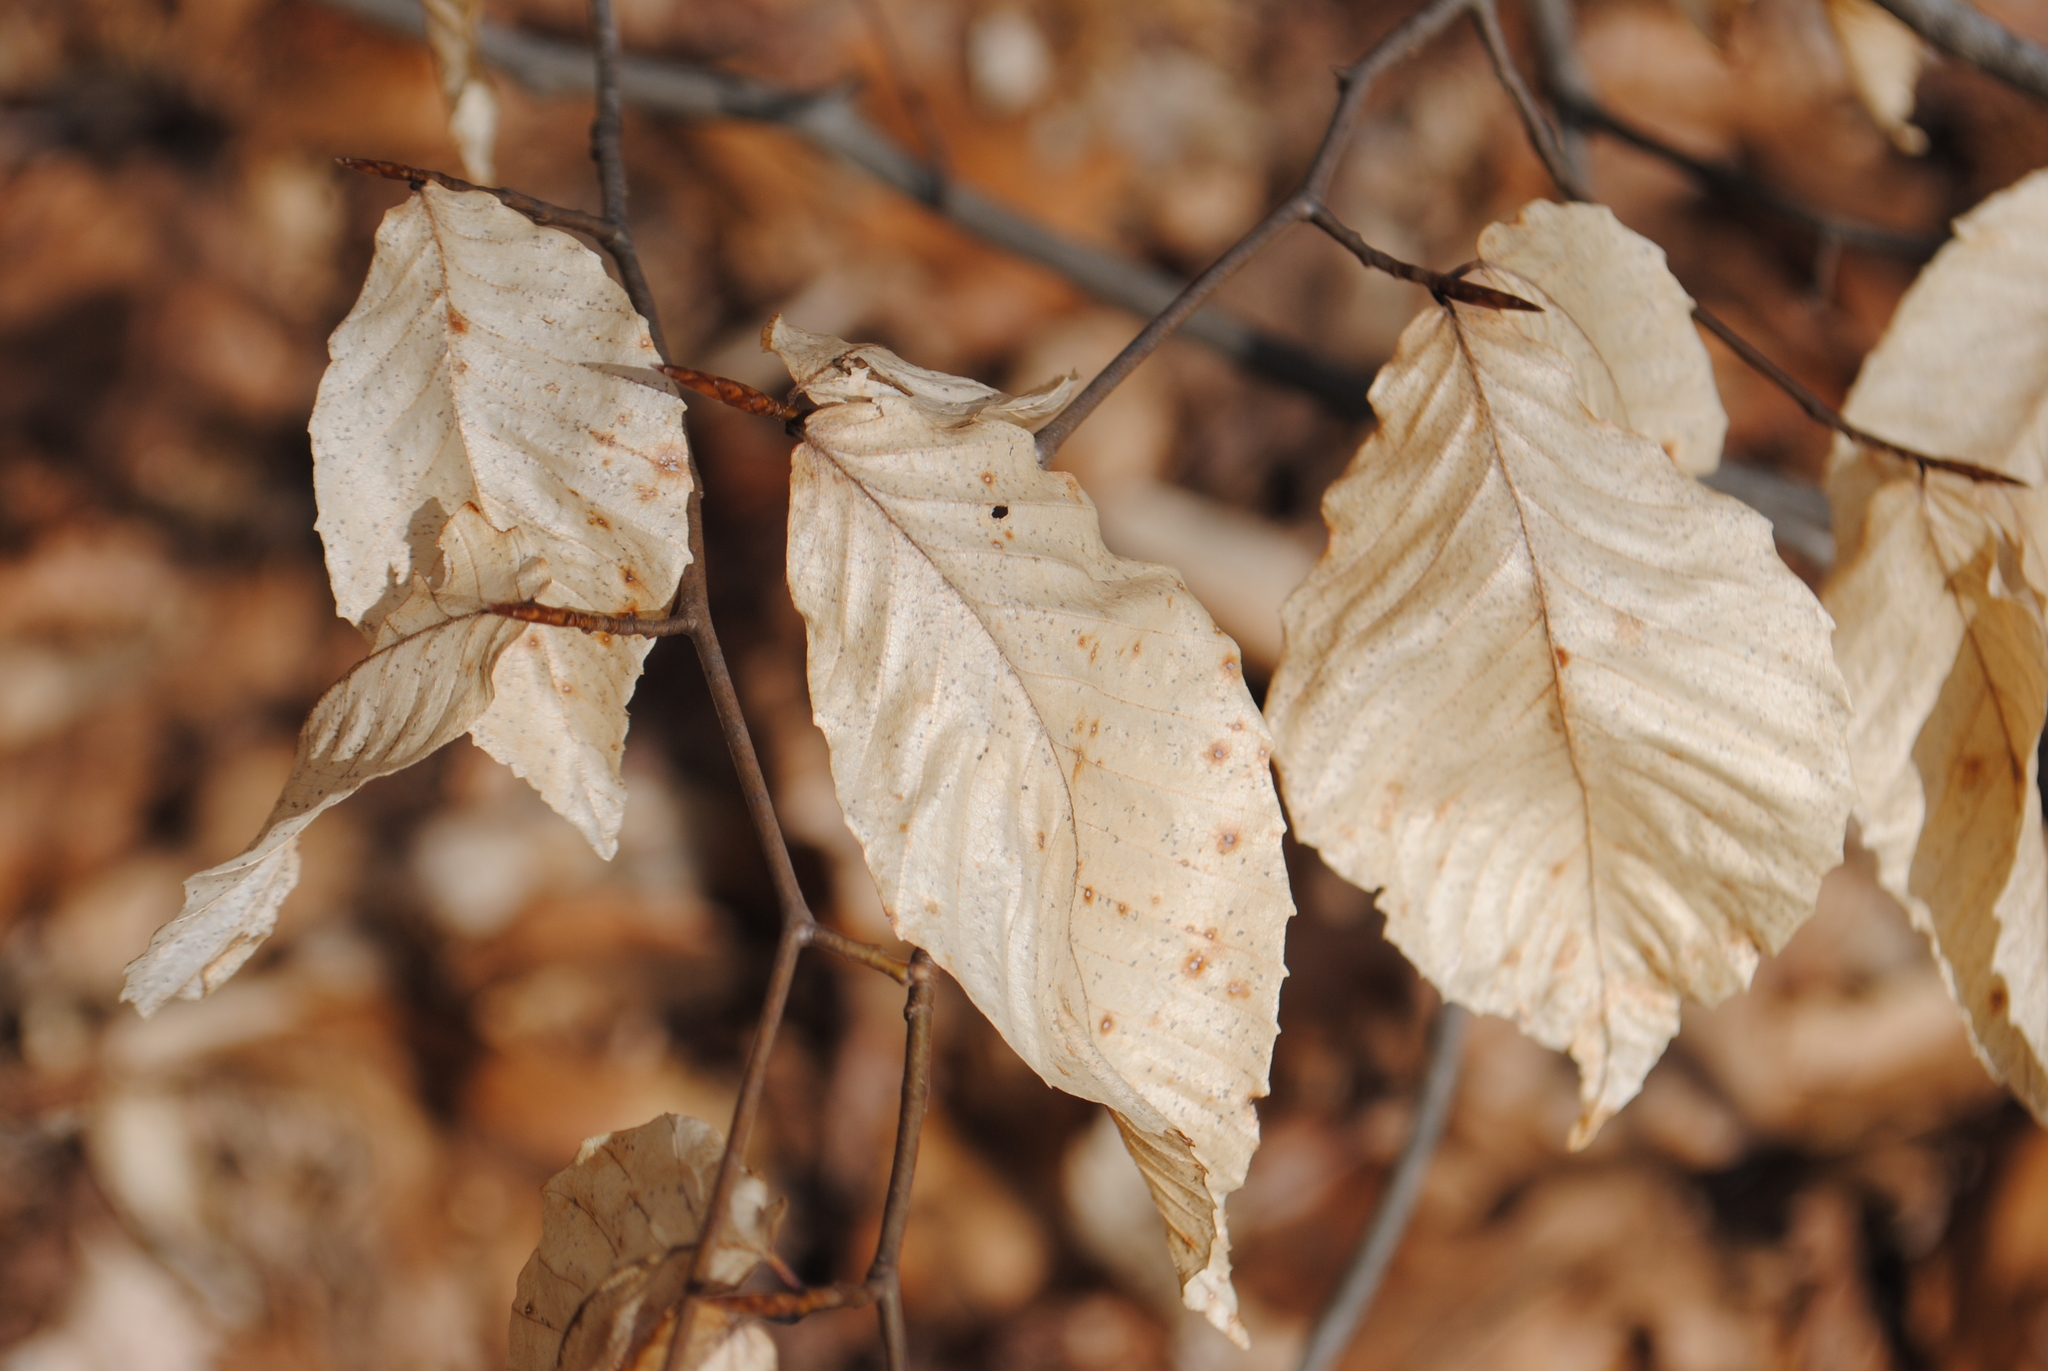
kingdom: Plantae
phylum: Tracheophyta
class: Magnoliopsida
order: Fagales
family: Fagaceae
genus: Fagus
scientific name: Fagus grandifolia
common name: American beech
